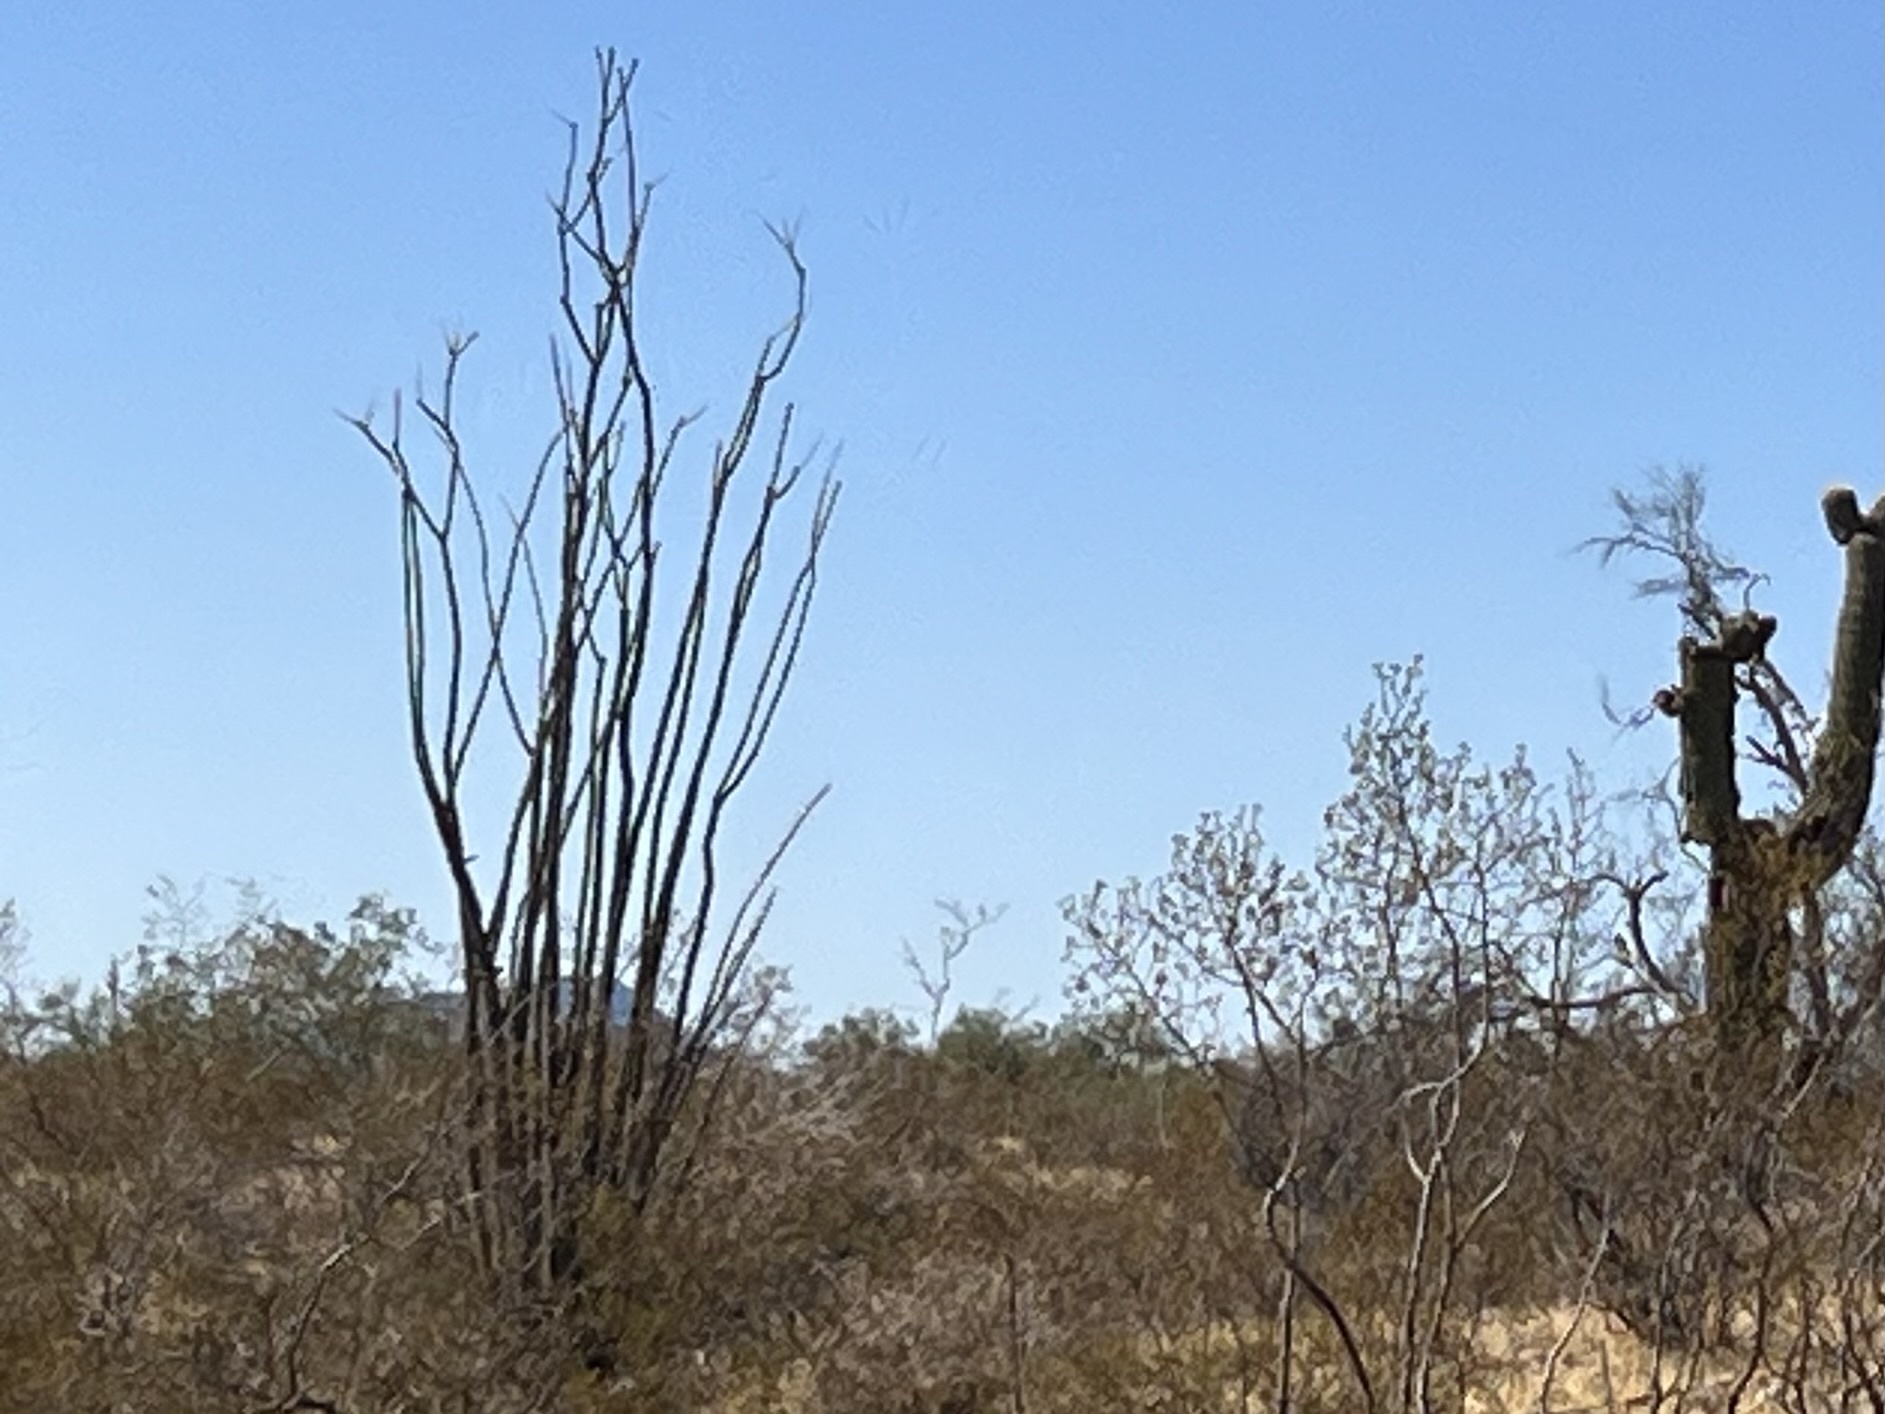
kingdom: Plantae
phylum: Tracheophyta
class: Magnoliopsida
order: Ericales
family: Fouquieriaceae
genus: Fouquieria
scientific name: Fouquieria splendens
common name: Vine-cactus
